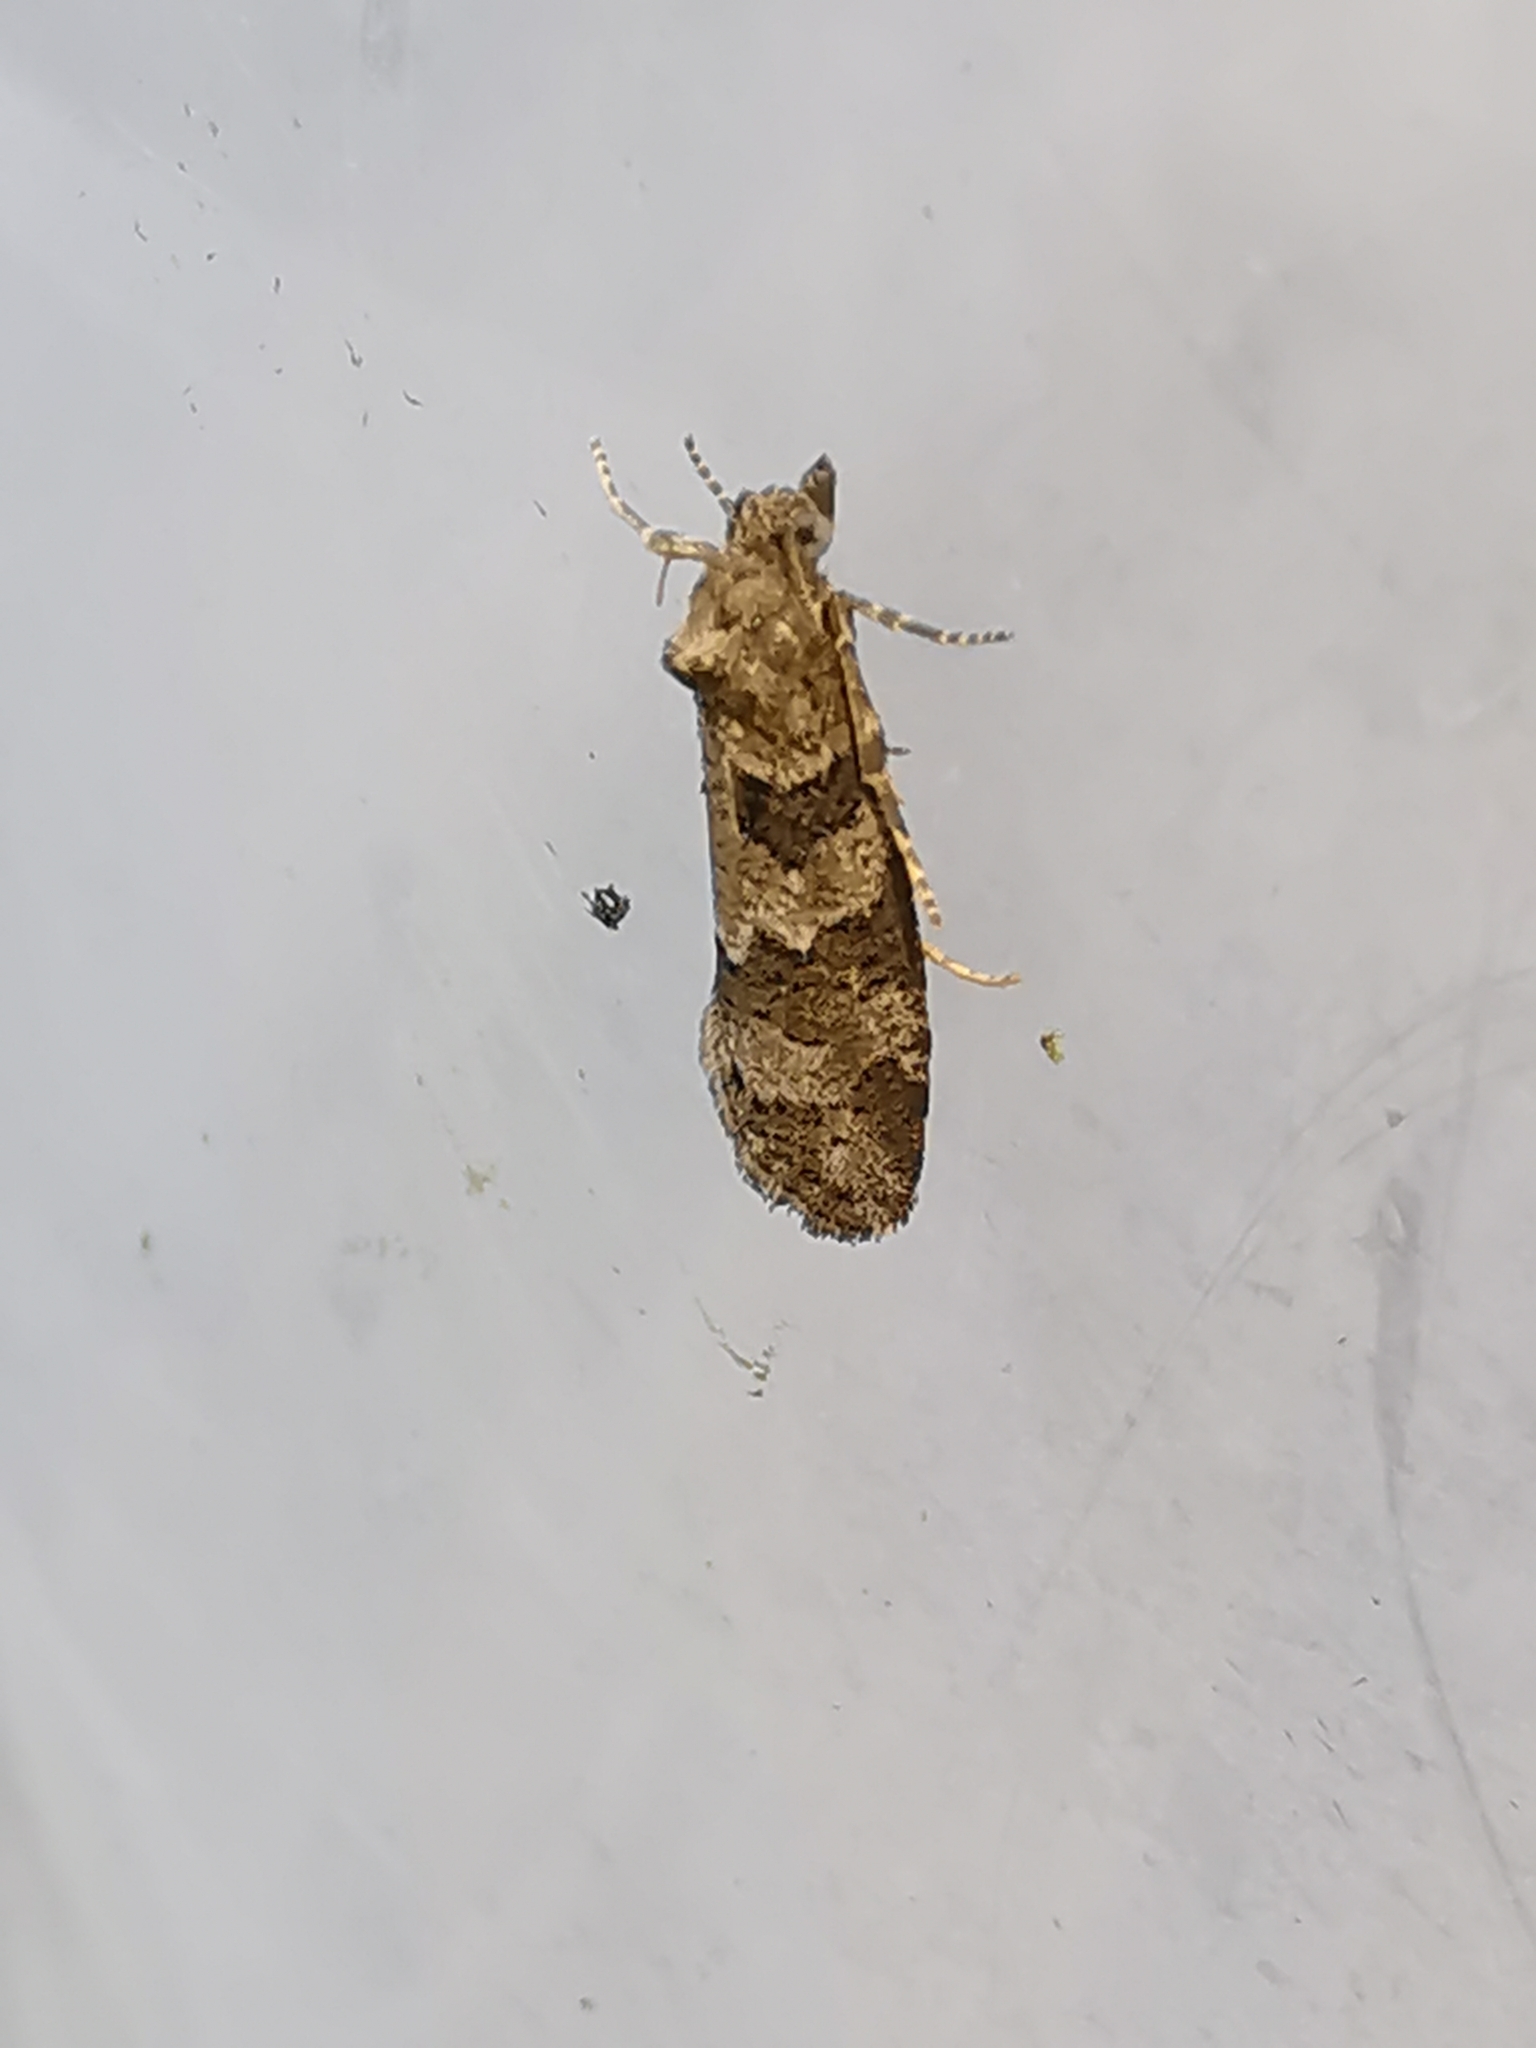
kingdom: Animalia
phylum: Arthropoda
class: Insecta
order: Lepidoptera
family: Tortricidae
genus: Cnephasia
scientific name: Cnephasia stephensiana
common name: Grey tortrix
